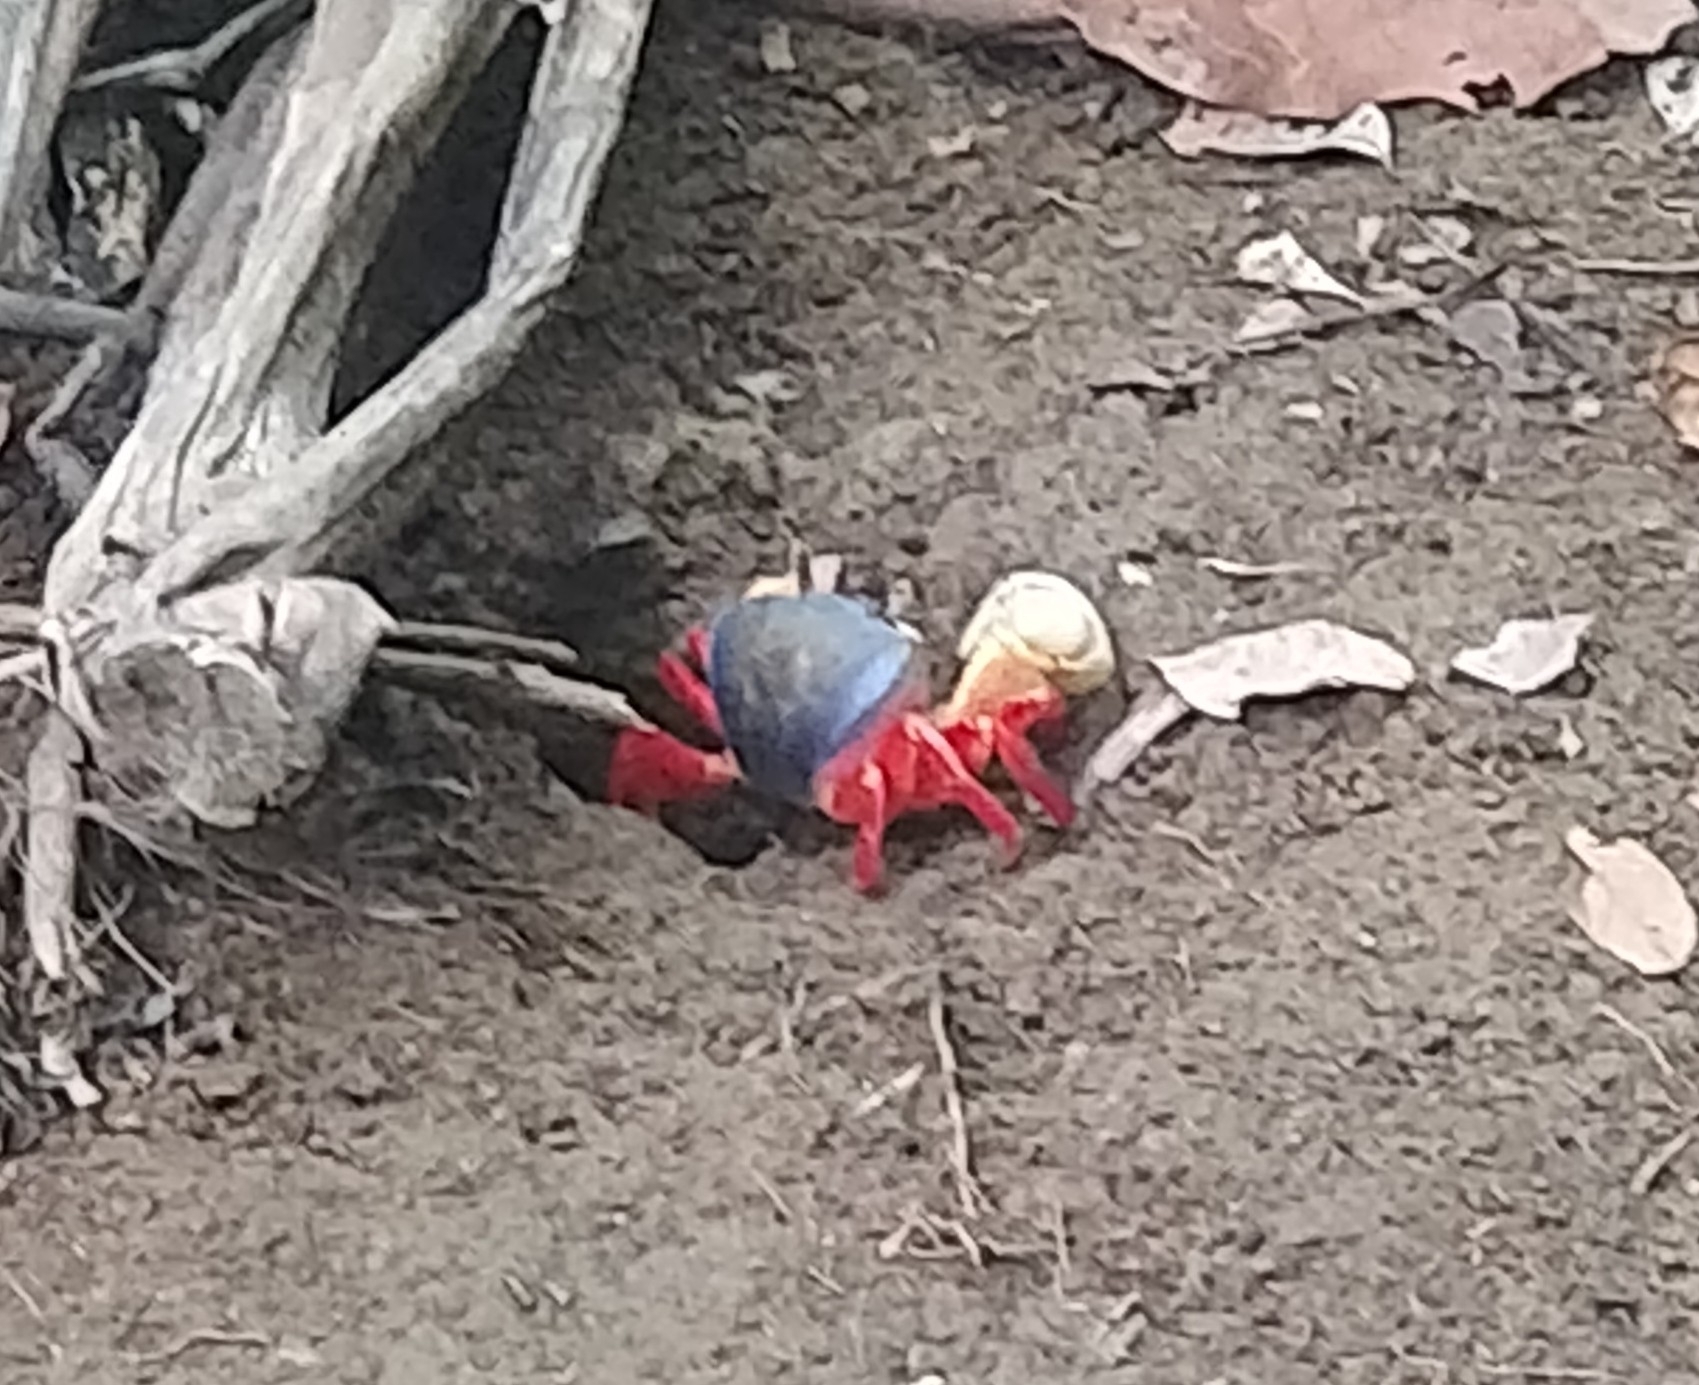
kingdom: Animalia
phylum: Arthropoda
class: Malacostraca
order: Decapoda
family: Gecarcinidae
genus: Cardisoma
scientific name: Cardisoma crassum
